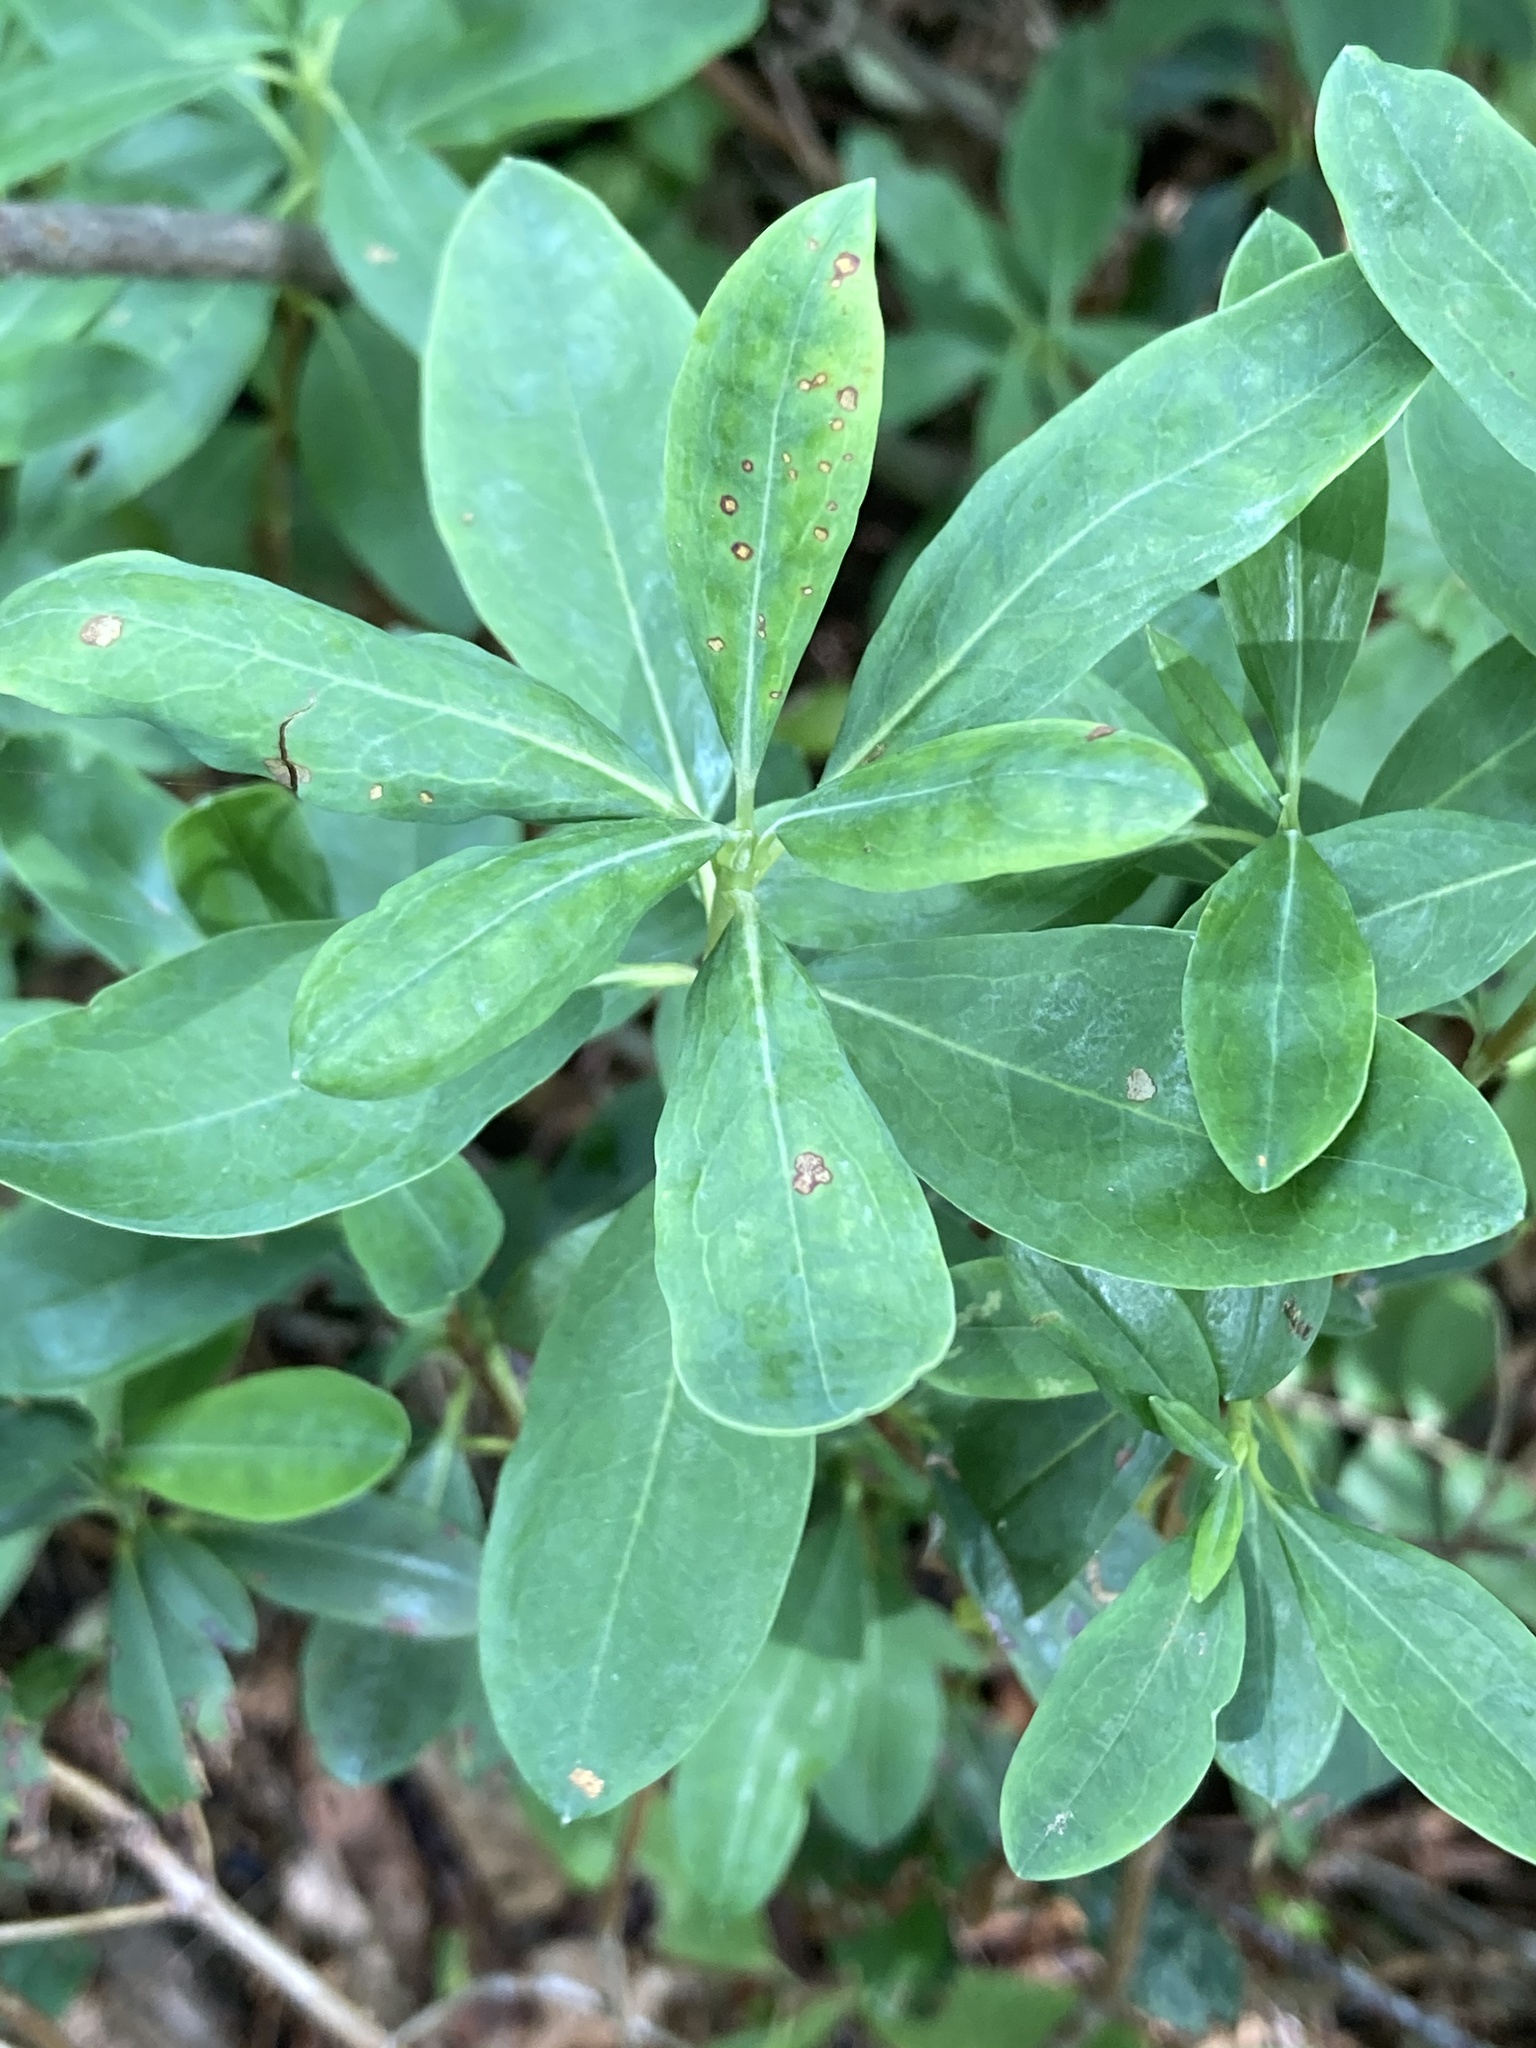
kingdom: Plantae
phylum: Tracheophyta
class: Magnoliopsida
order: Ericales
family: Ericaceae
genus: Kalmia
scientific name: Kalmia angustifolia
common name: Sheep-laurel
